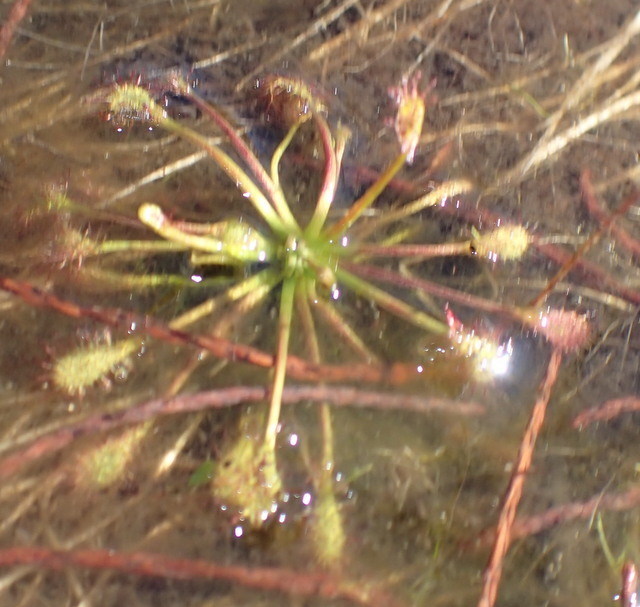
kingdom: Plantae
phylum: Tracheophyta
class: Magnoliopsida
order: Caryophyllales
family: Droseraceae
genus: Drosera
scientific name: Drosera capillaris
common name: Pink sundew
